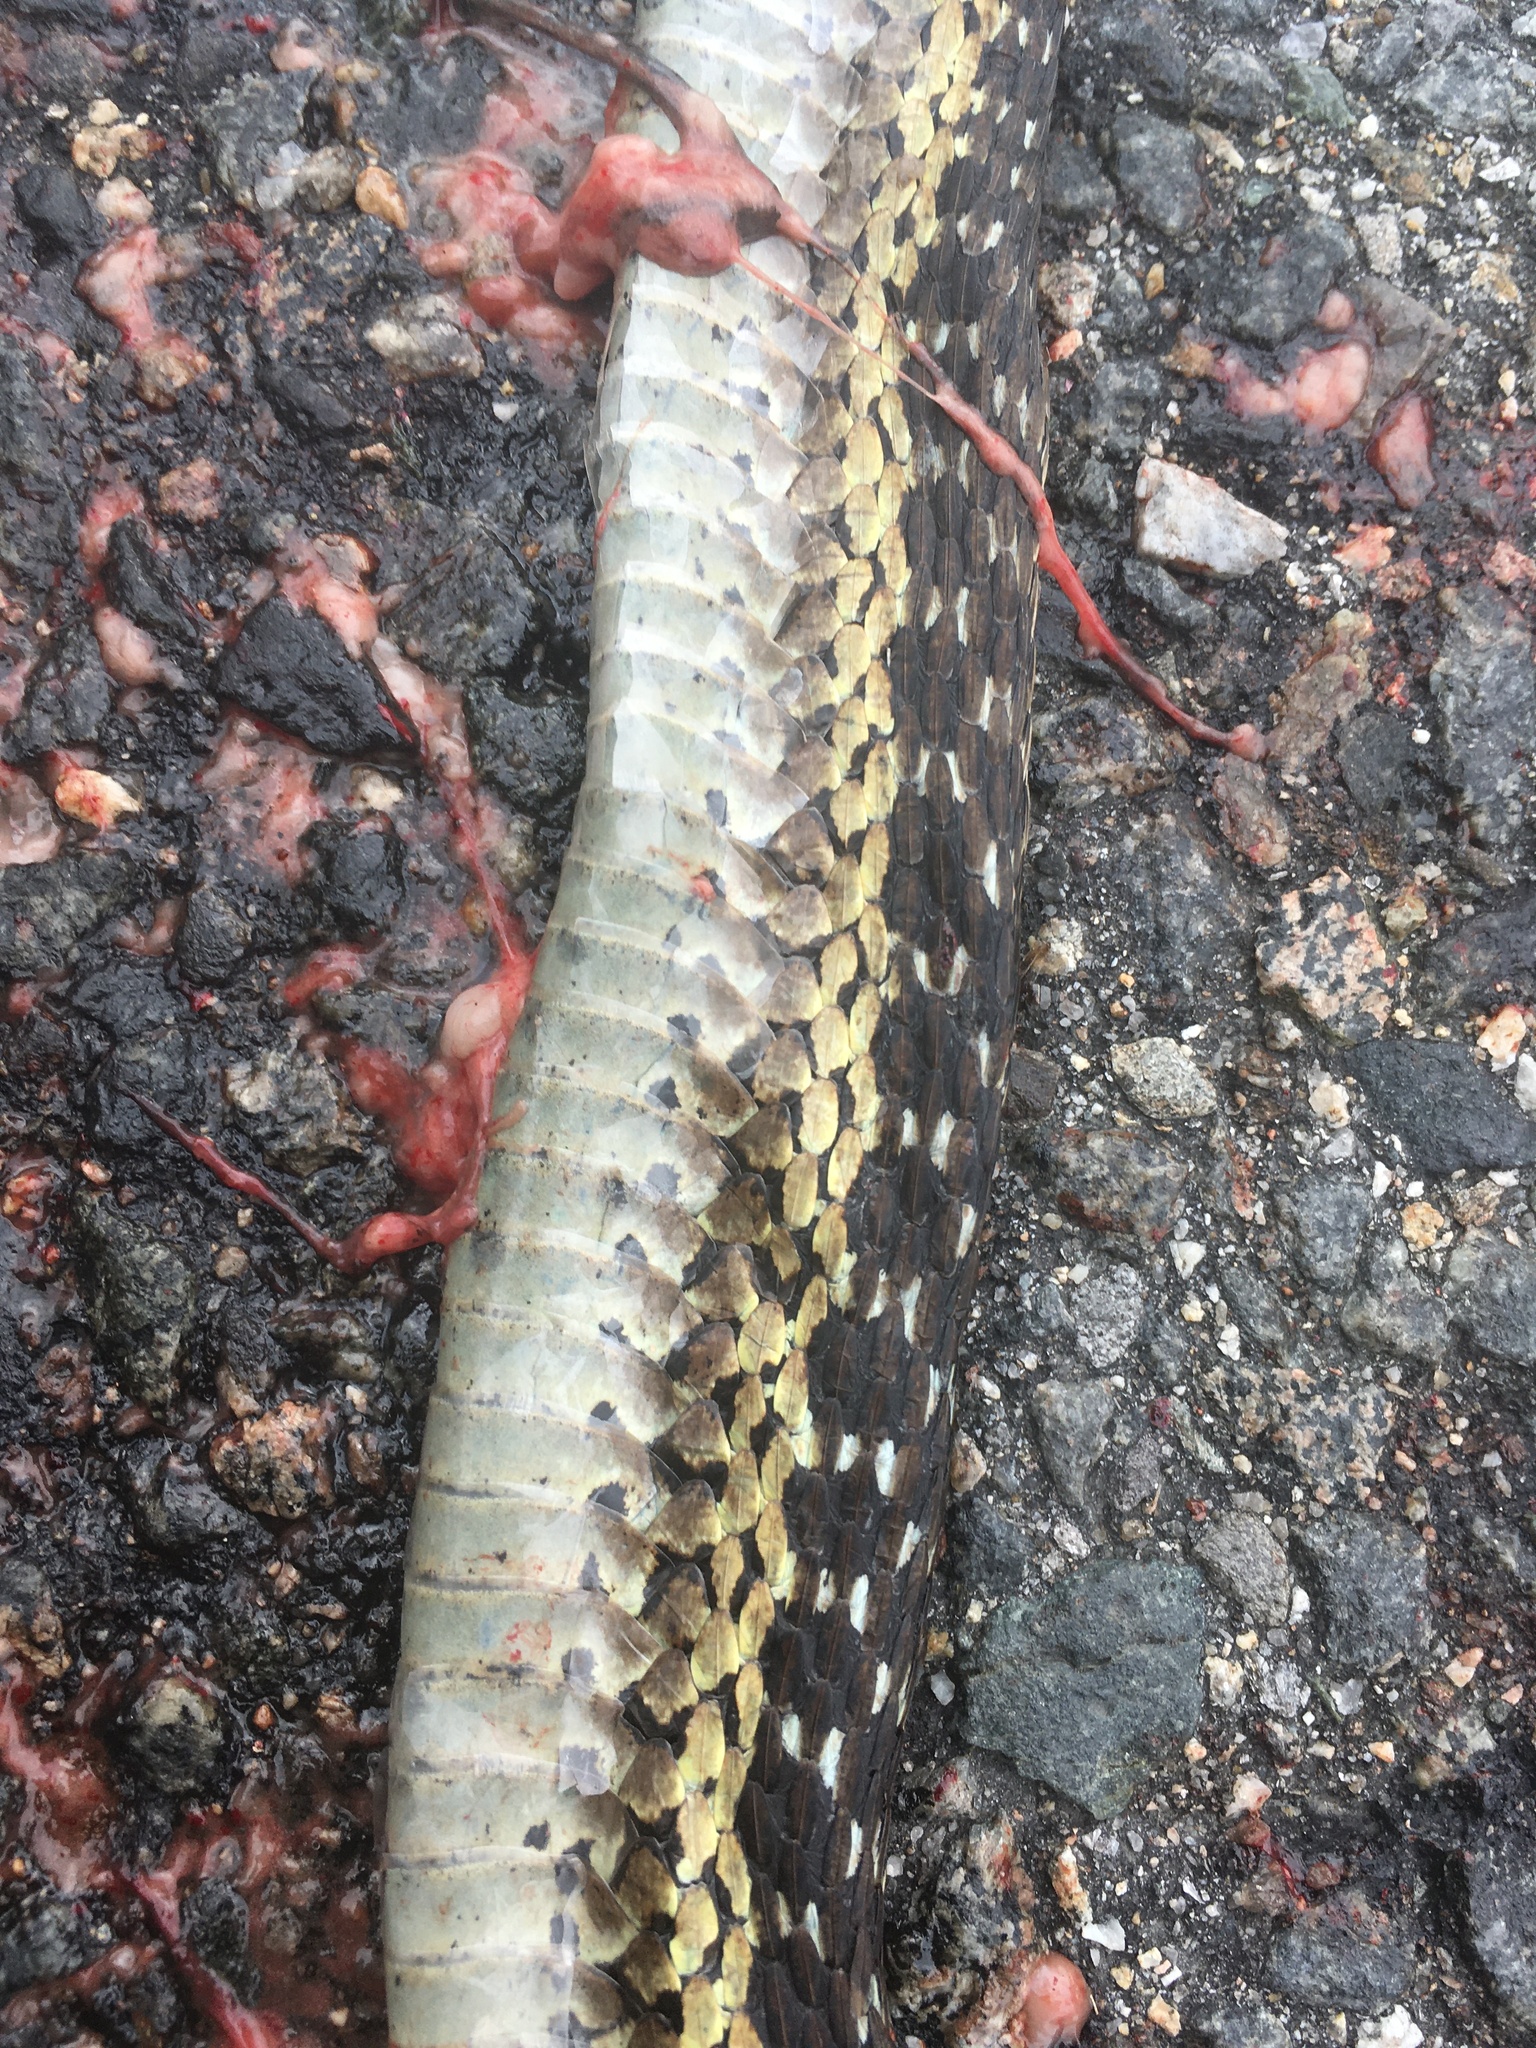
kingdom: Animalia
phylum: Chordata
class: Squamata
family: Colubridae
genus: Thamnophis
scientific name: Thamnophis sirtalis
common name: Common garter snake
